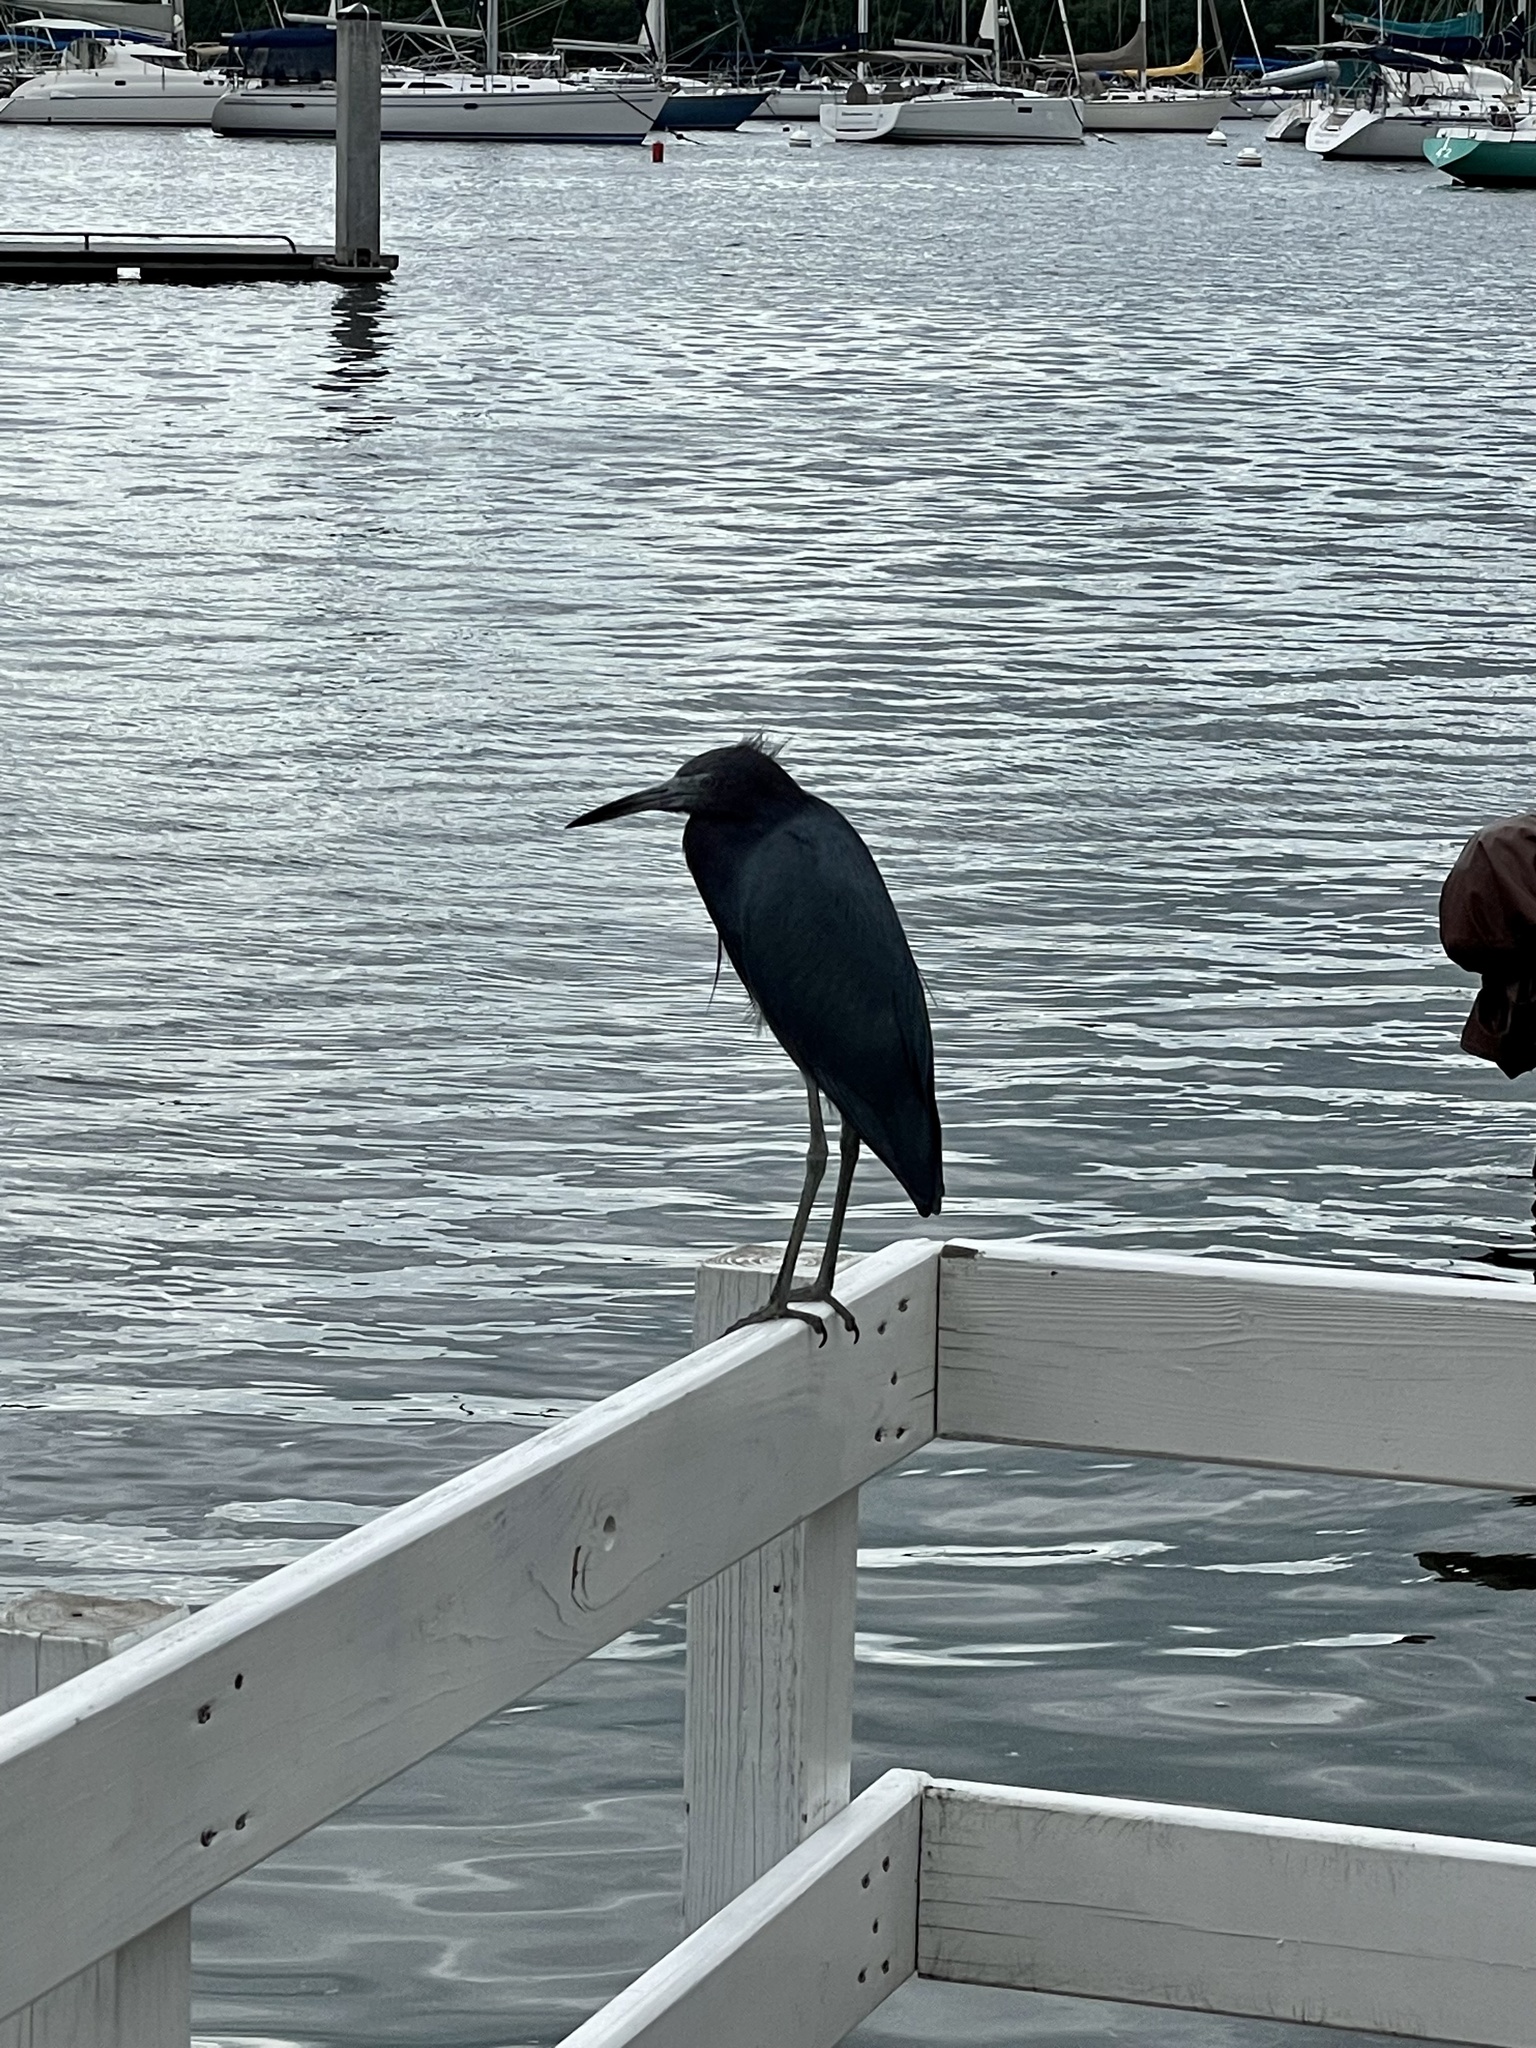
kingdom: Animalia
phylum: Chordata
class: Aves
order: Pelecaniformes
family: Ardeidae
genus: Egretta
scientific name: Egretta caerulea
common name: Little blue heron
